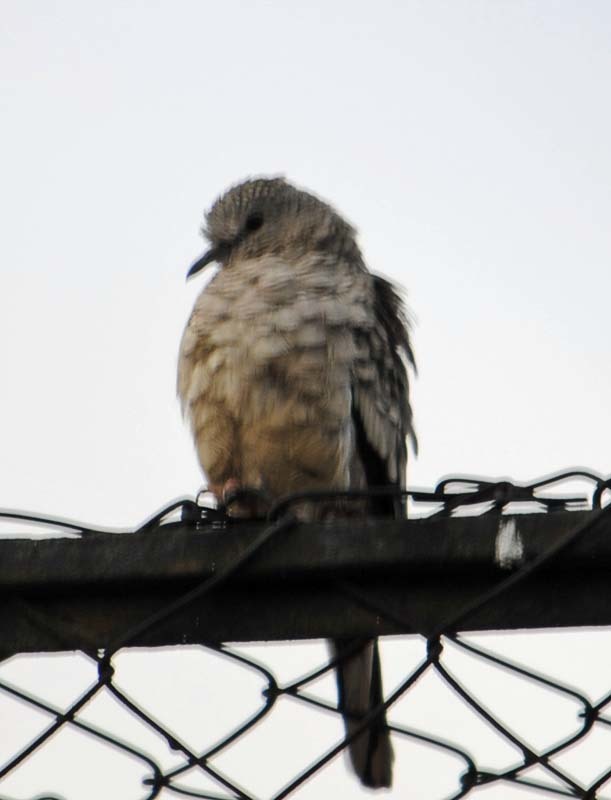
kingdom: Animalia
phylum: Chordata
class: Aves
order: Columbiformes
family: Columbidae
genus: Columbina
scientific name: Columbina inca
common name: Inca dove
